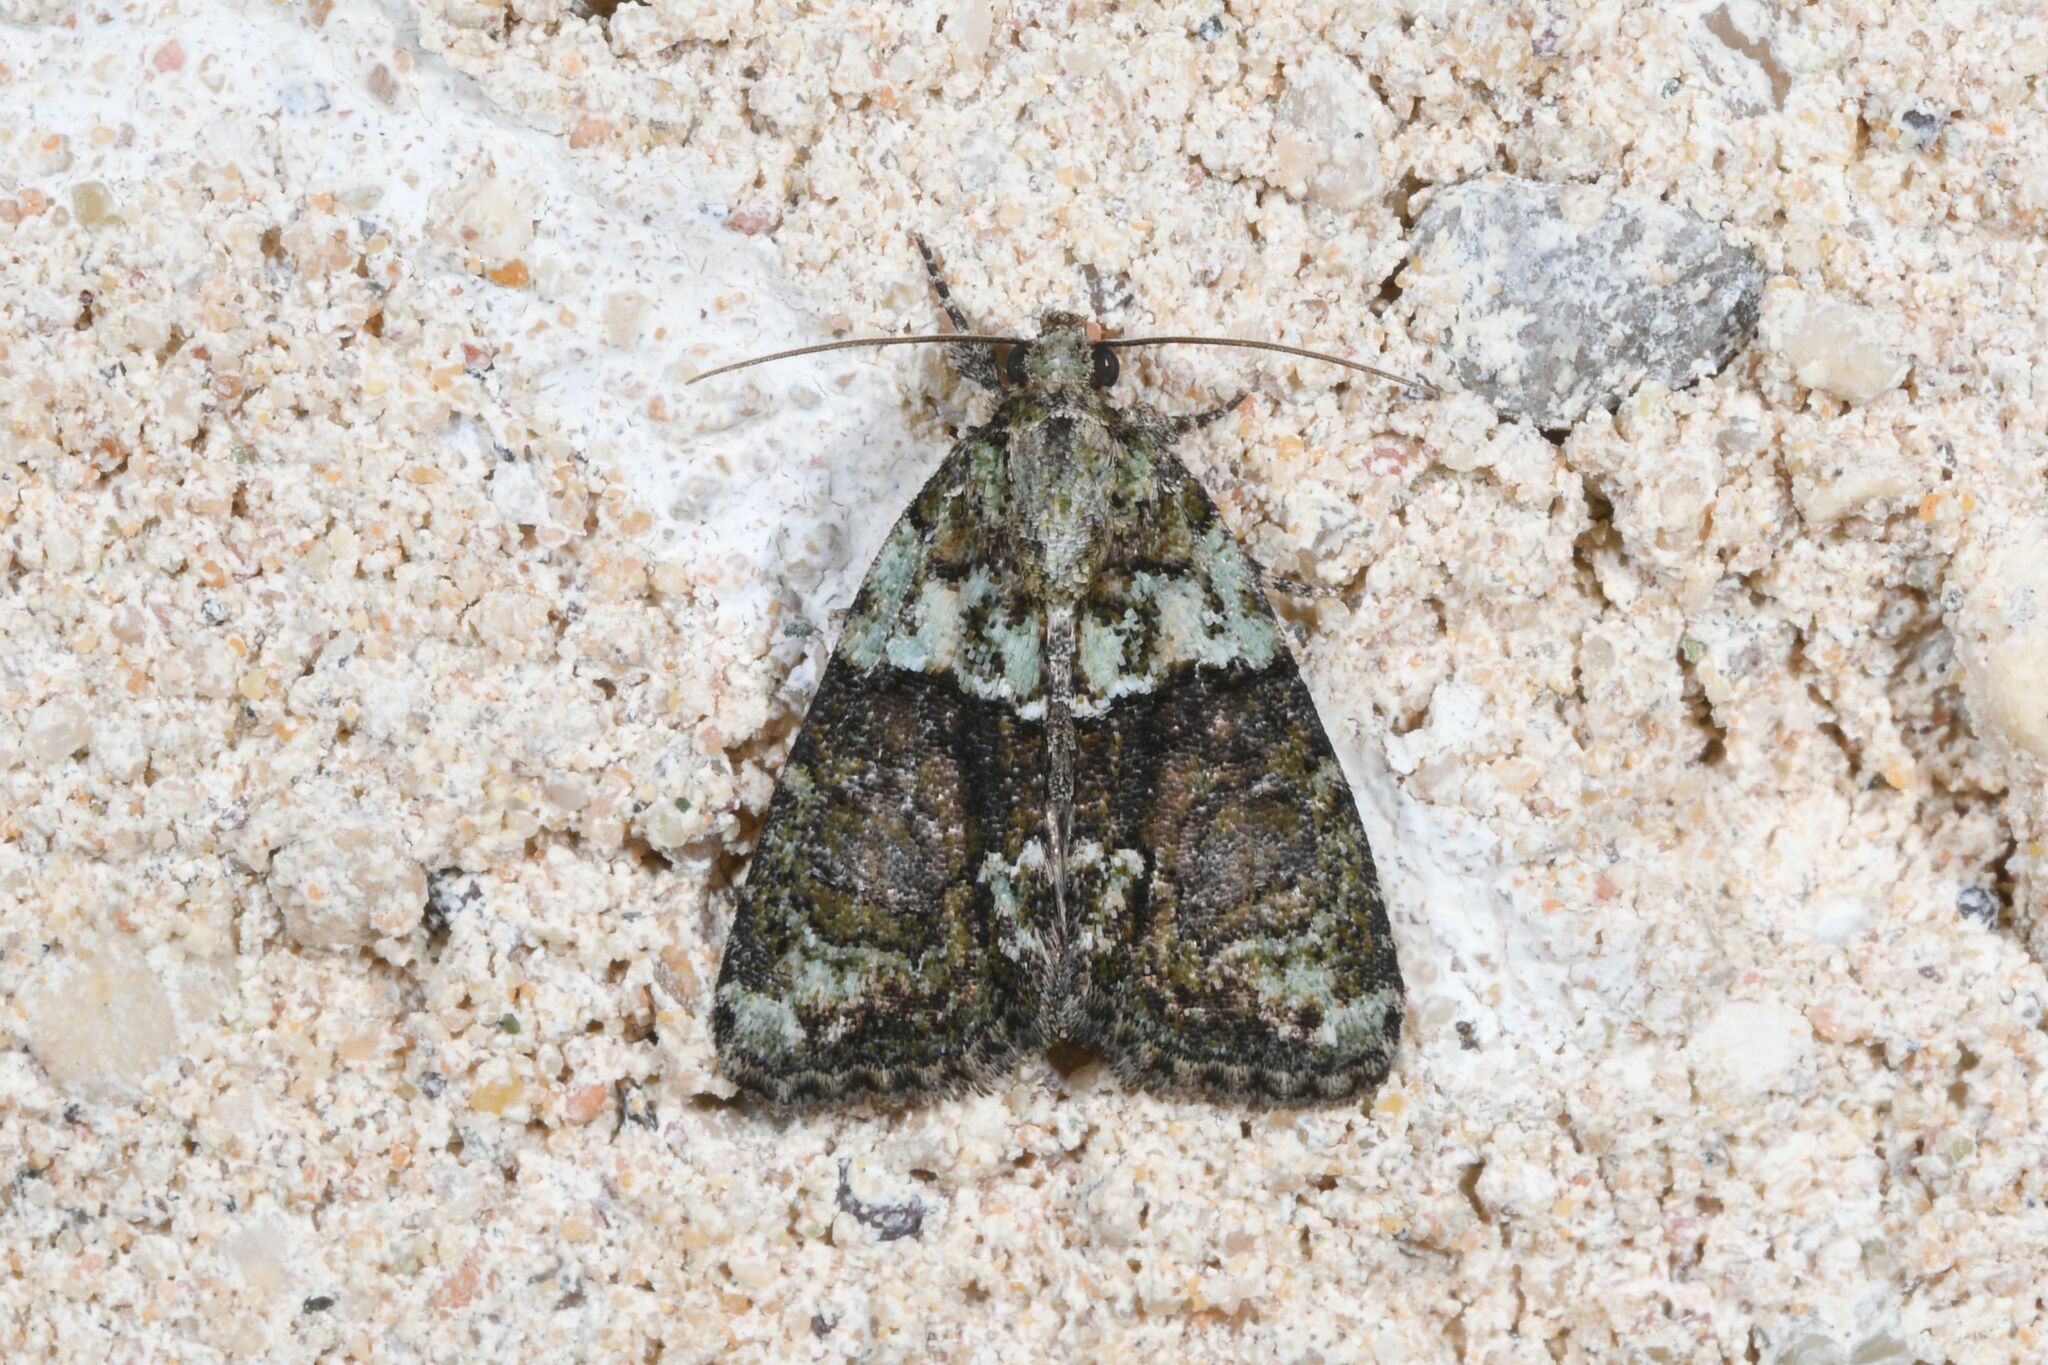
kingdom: Animalia
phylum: Arthropoda
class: Insecta
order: Lepidoptera
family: Noctuidae
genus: Cryphia
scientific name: Cryphia algae
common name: Tree-lichen beauty
